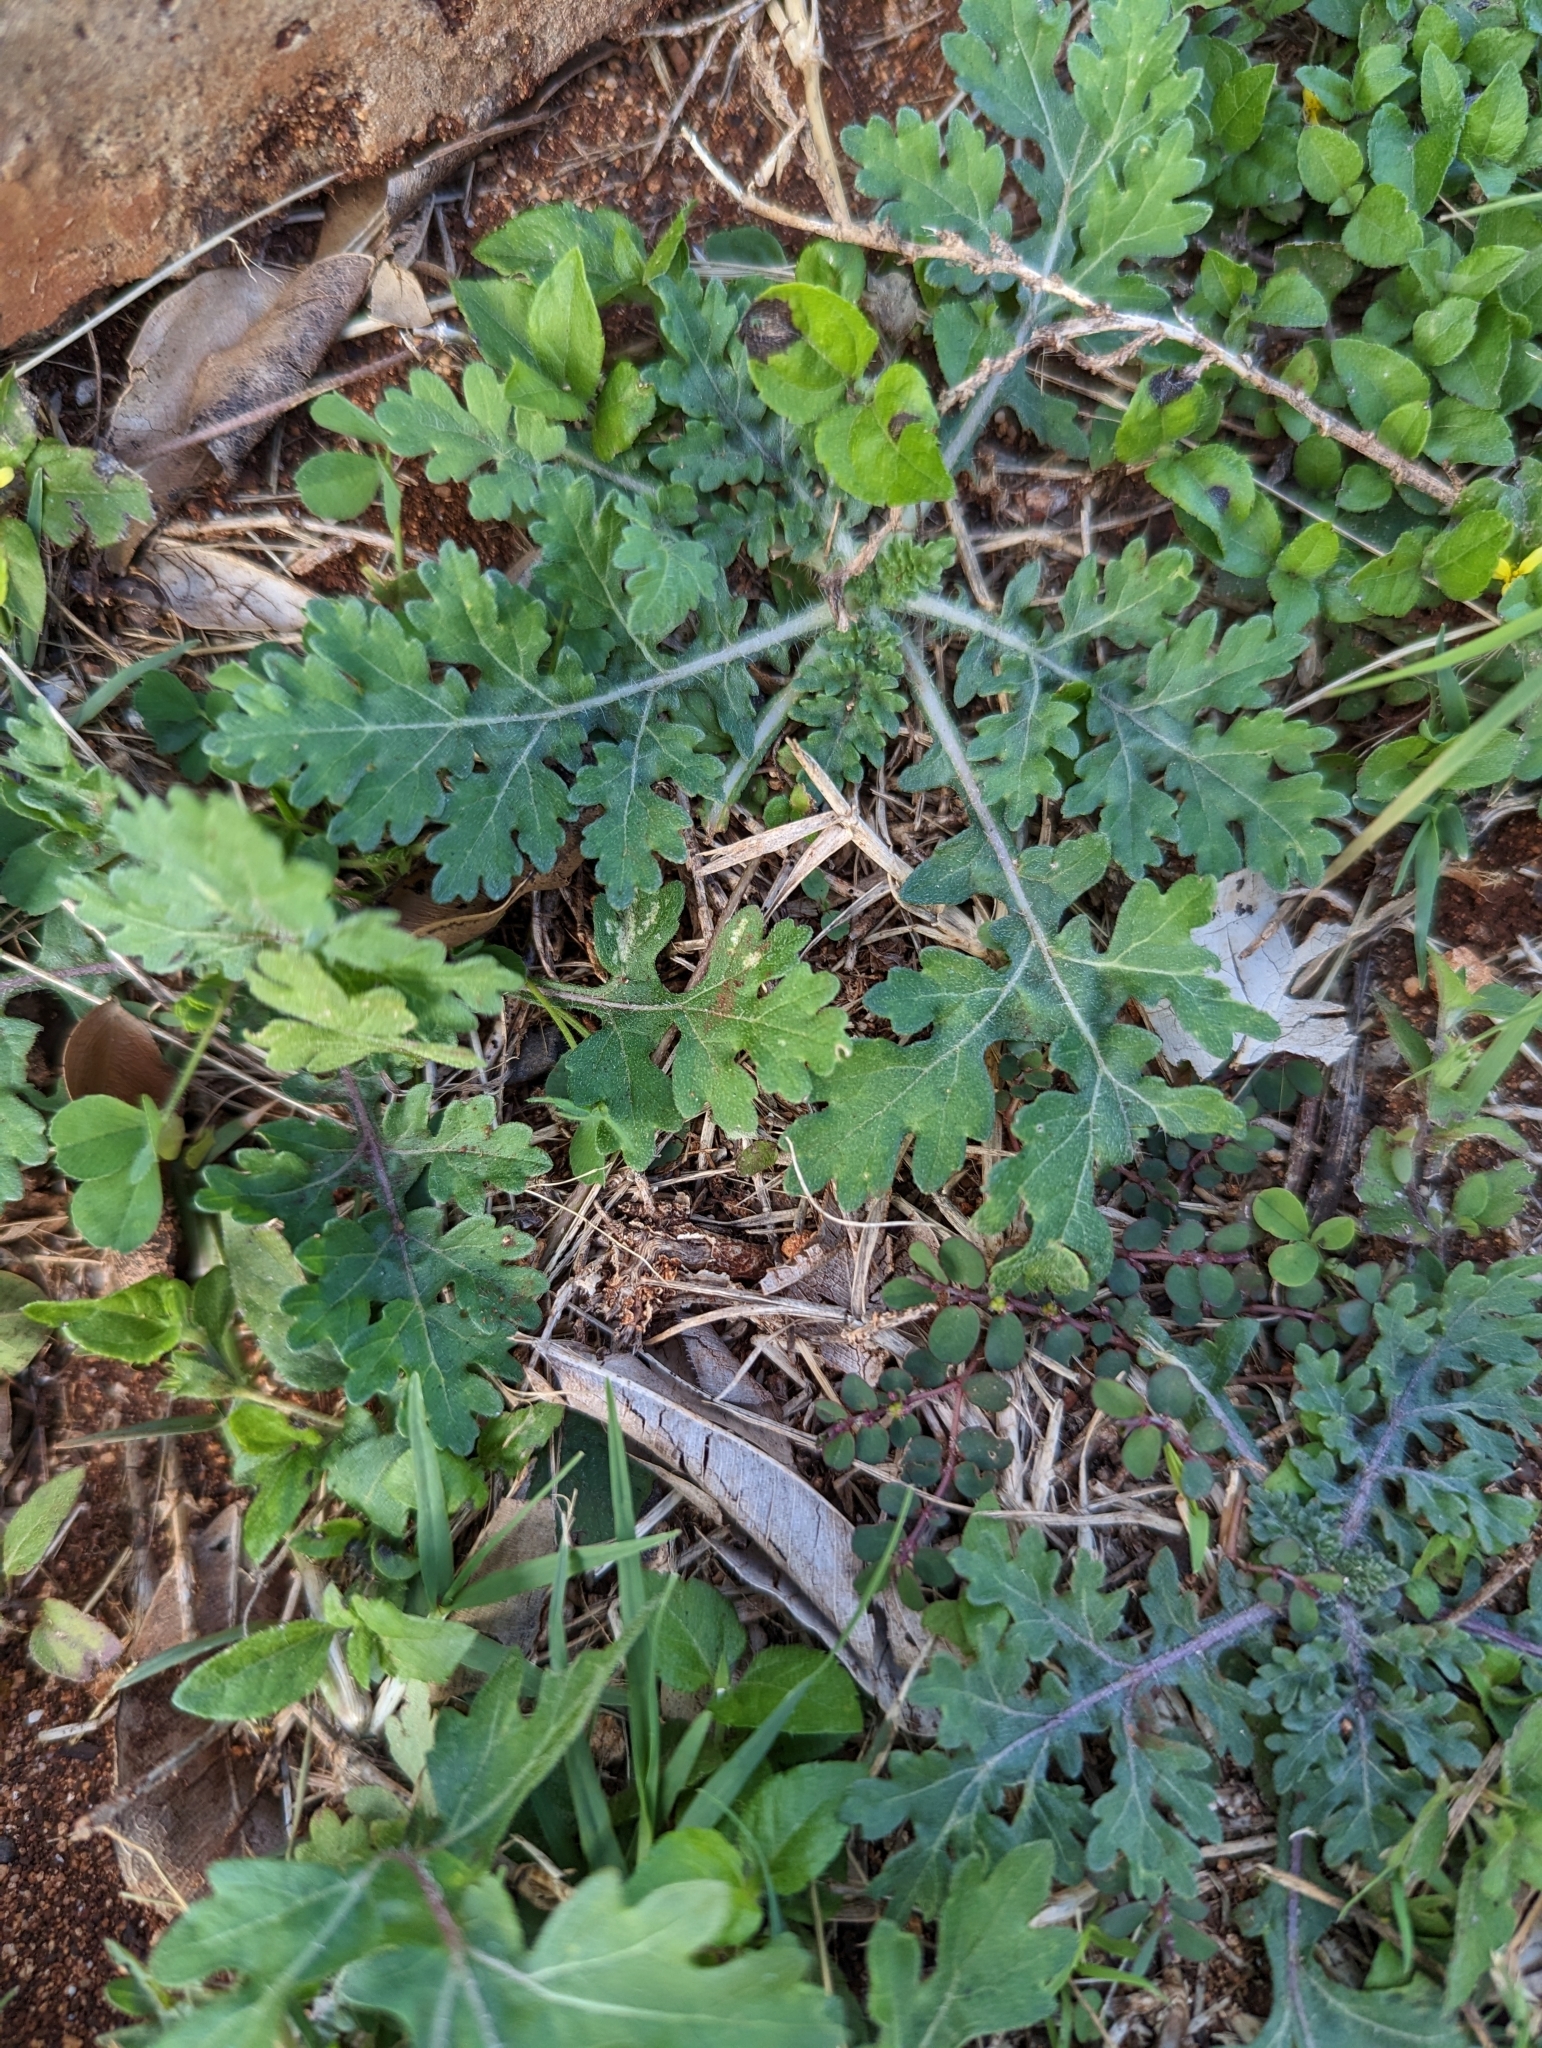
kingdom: Plantae
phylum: Tracheophyta
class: Magnoliopsida
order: Asterales
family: Asteraceae
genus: Parthenium
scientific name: Parthenium hysterophorus
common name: Santa maria feverfew
